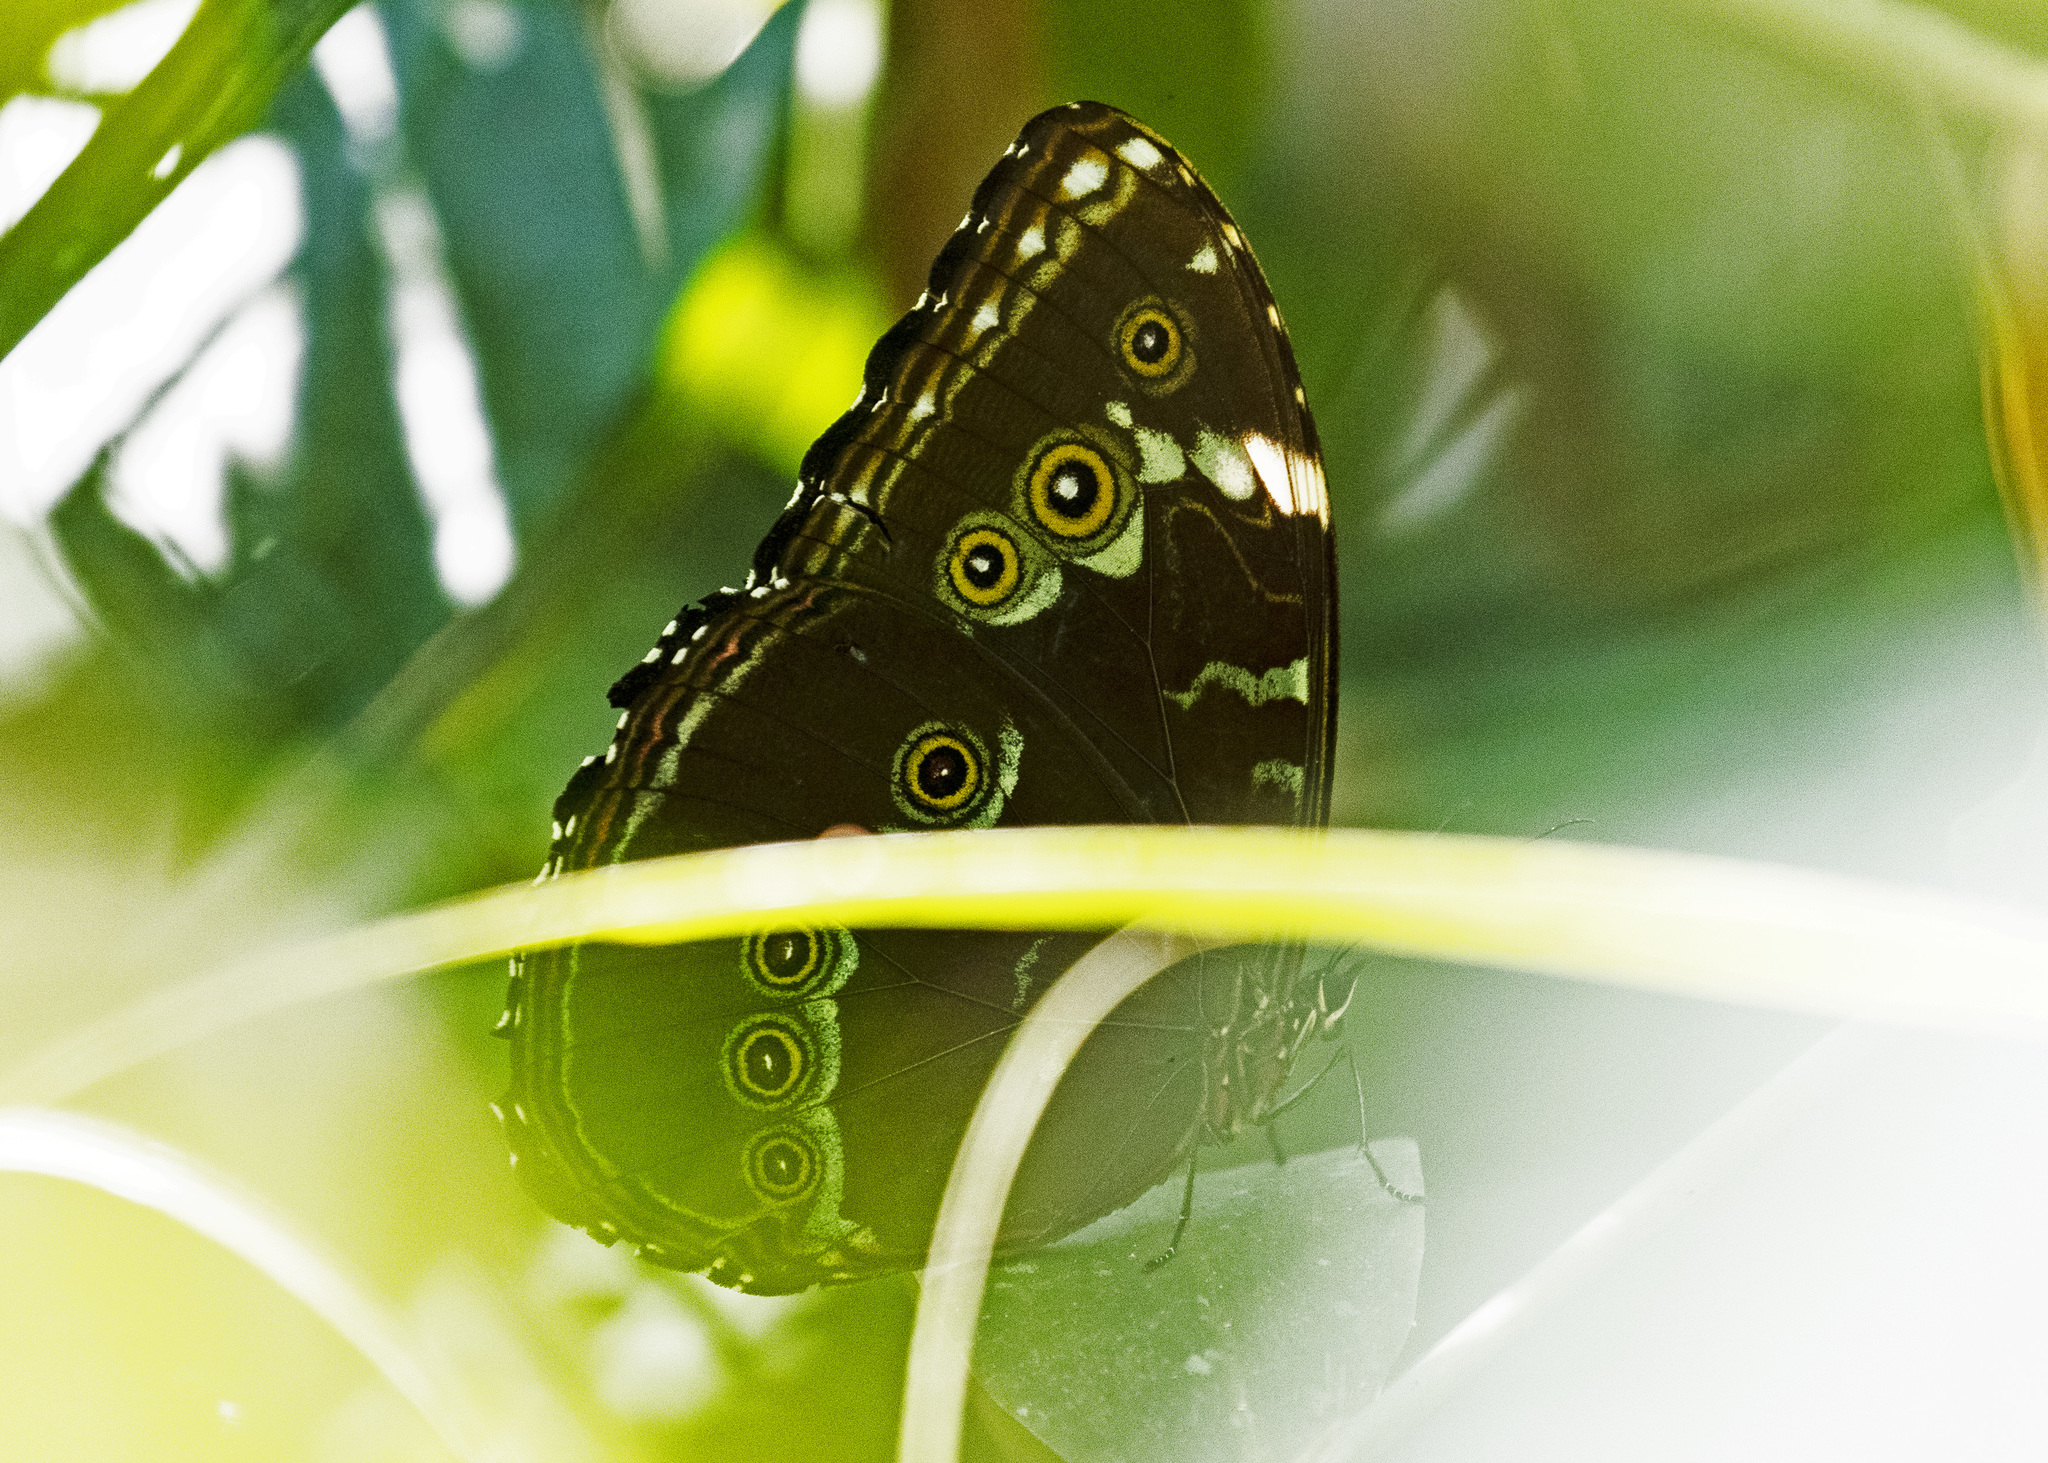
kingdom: Animalia
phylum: Arthropoda
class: Insecta
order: Lepidoptera
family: Nymphalidae
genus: Morpho
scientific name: Morpho achilles
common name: Achilles morpho
